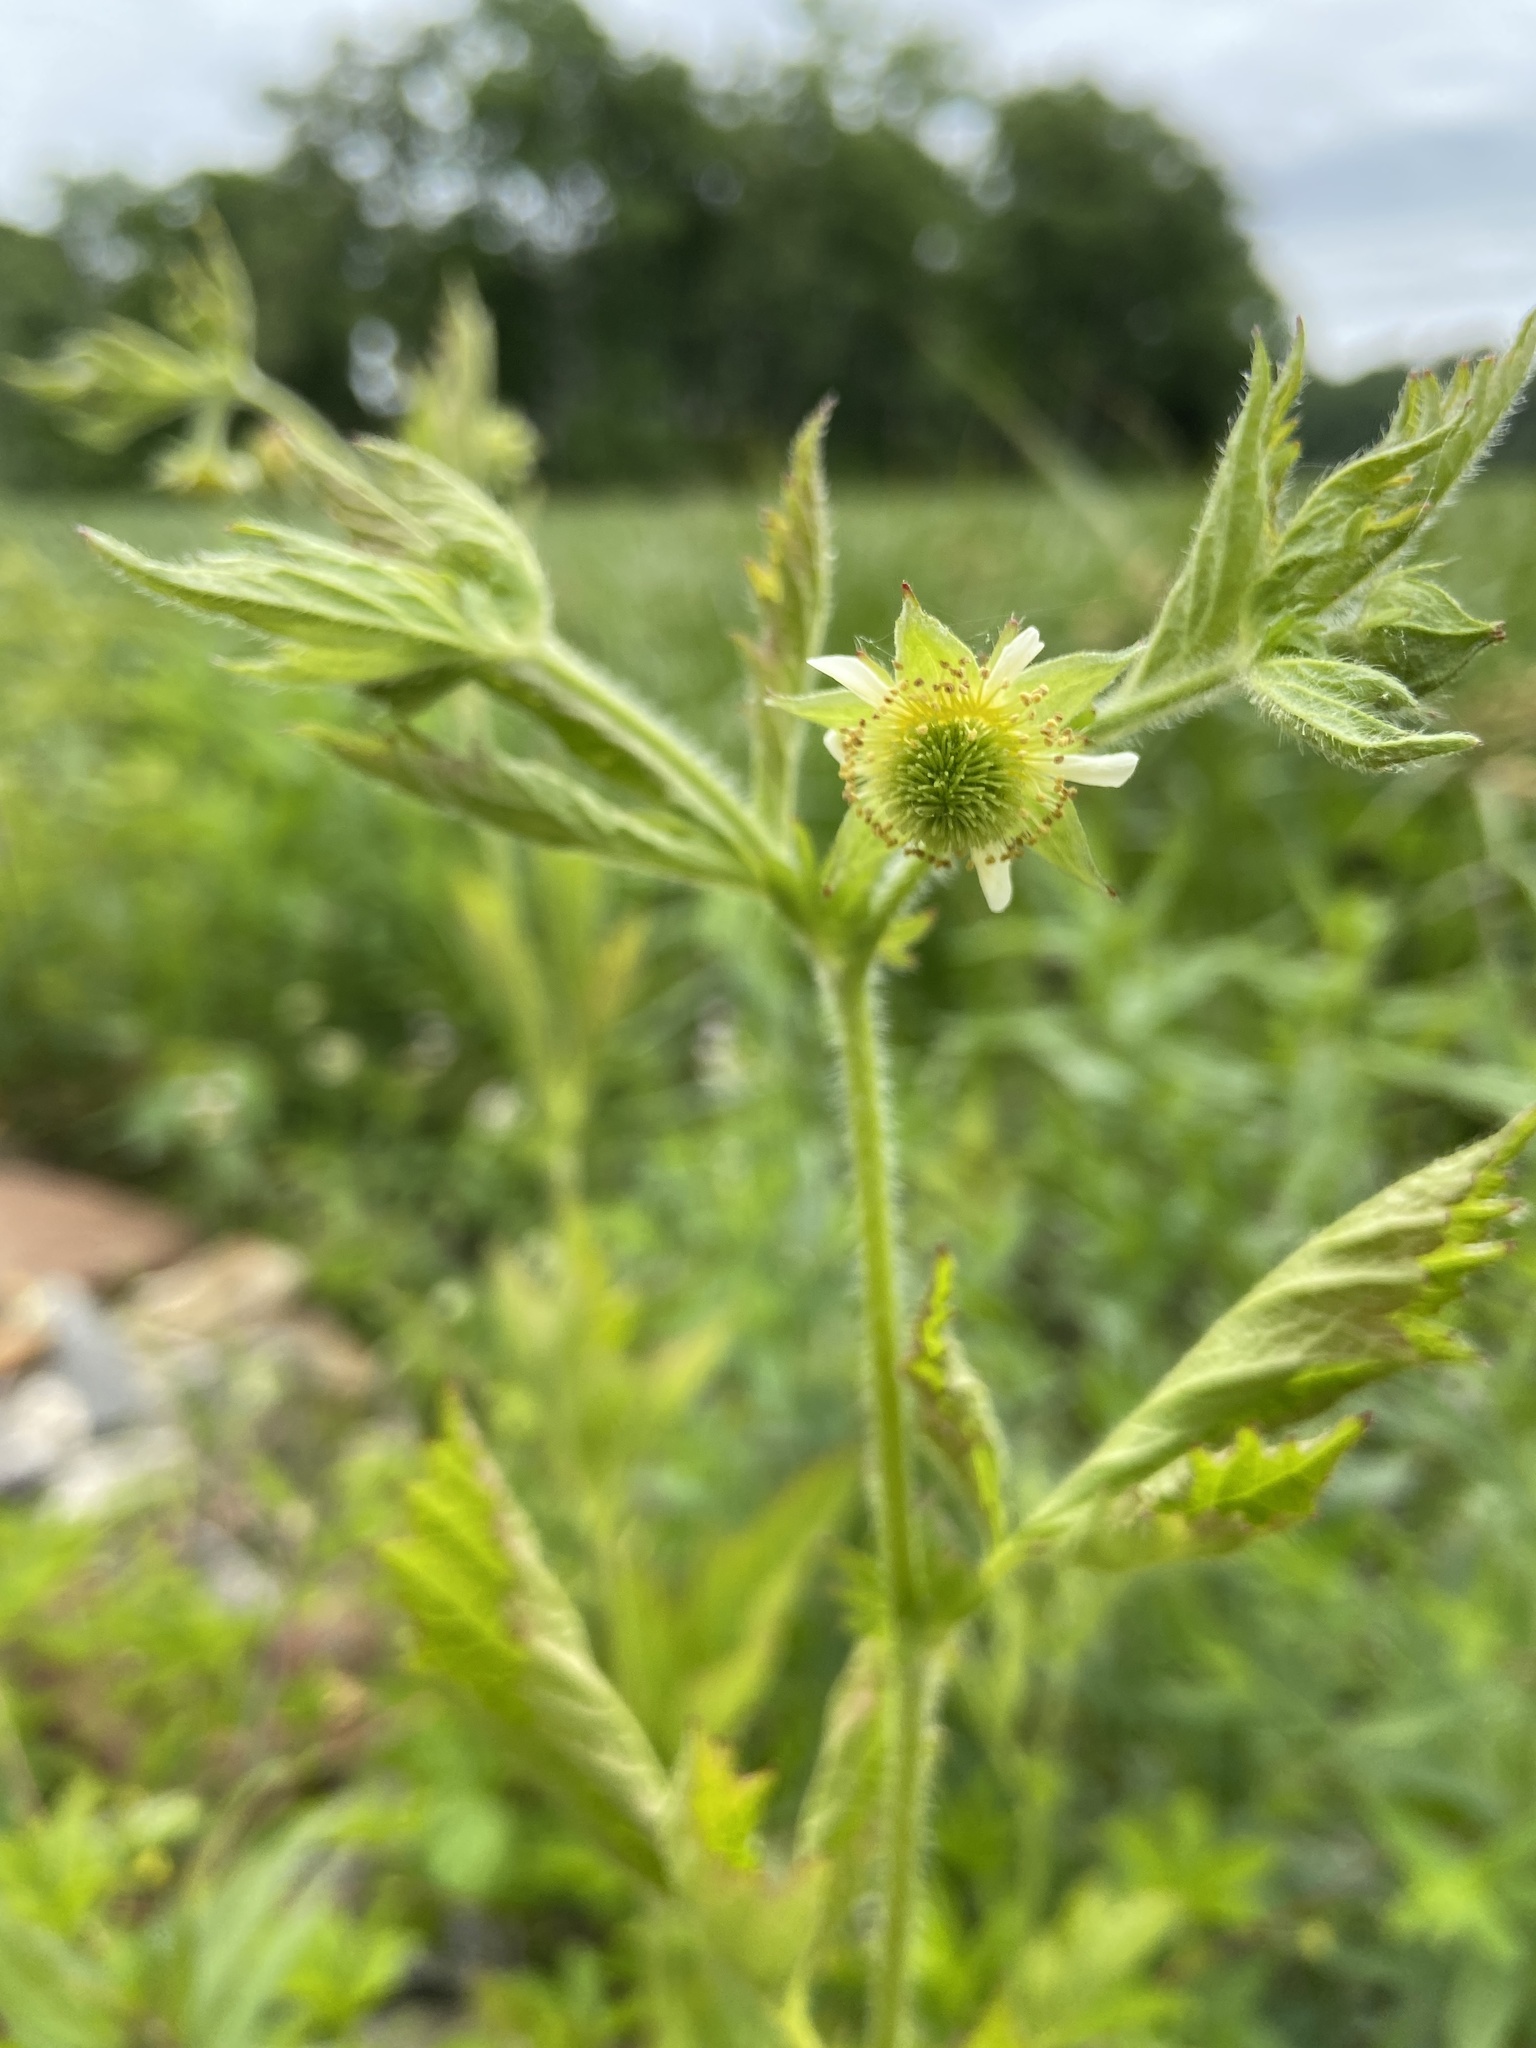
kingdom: Plantae
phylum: Tracheophyta
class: Magnoliopsida
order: Rosales
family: Rosaceae
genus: Geum
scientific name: Geum laciniatum
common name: Rough avens
